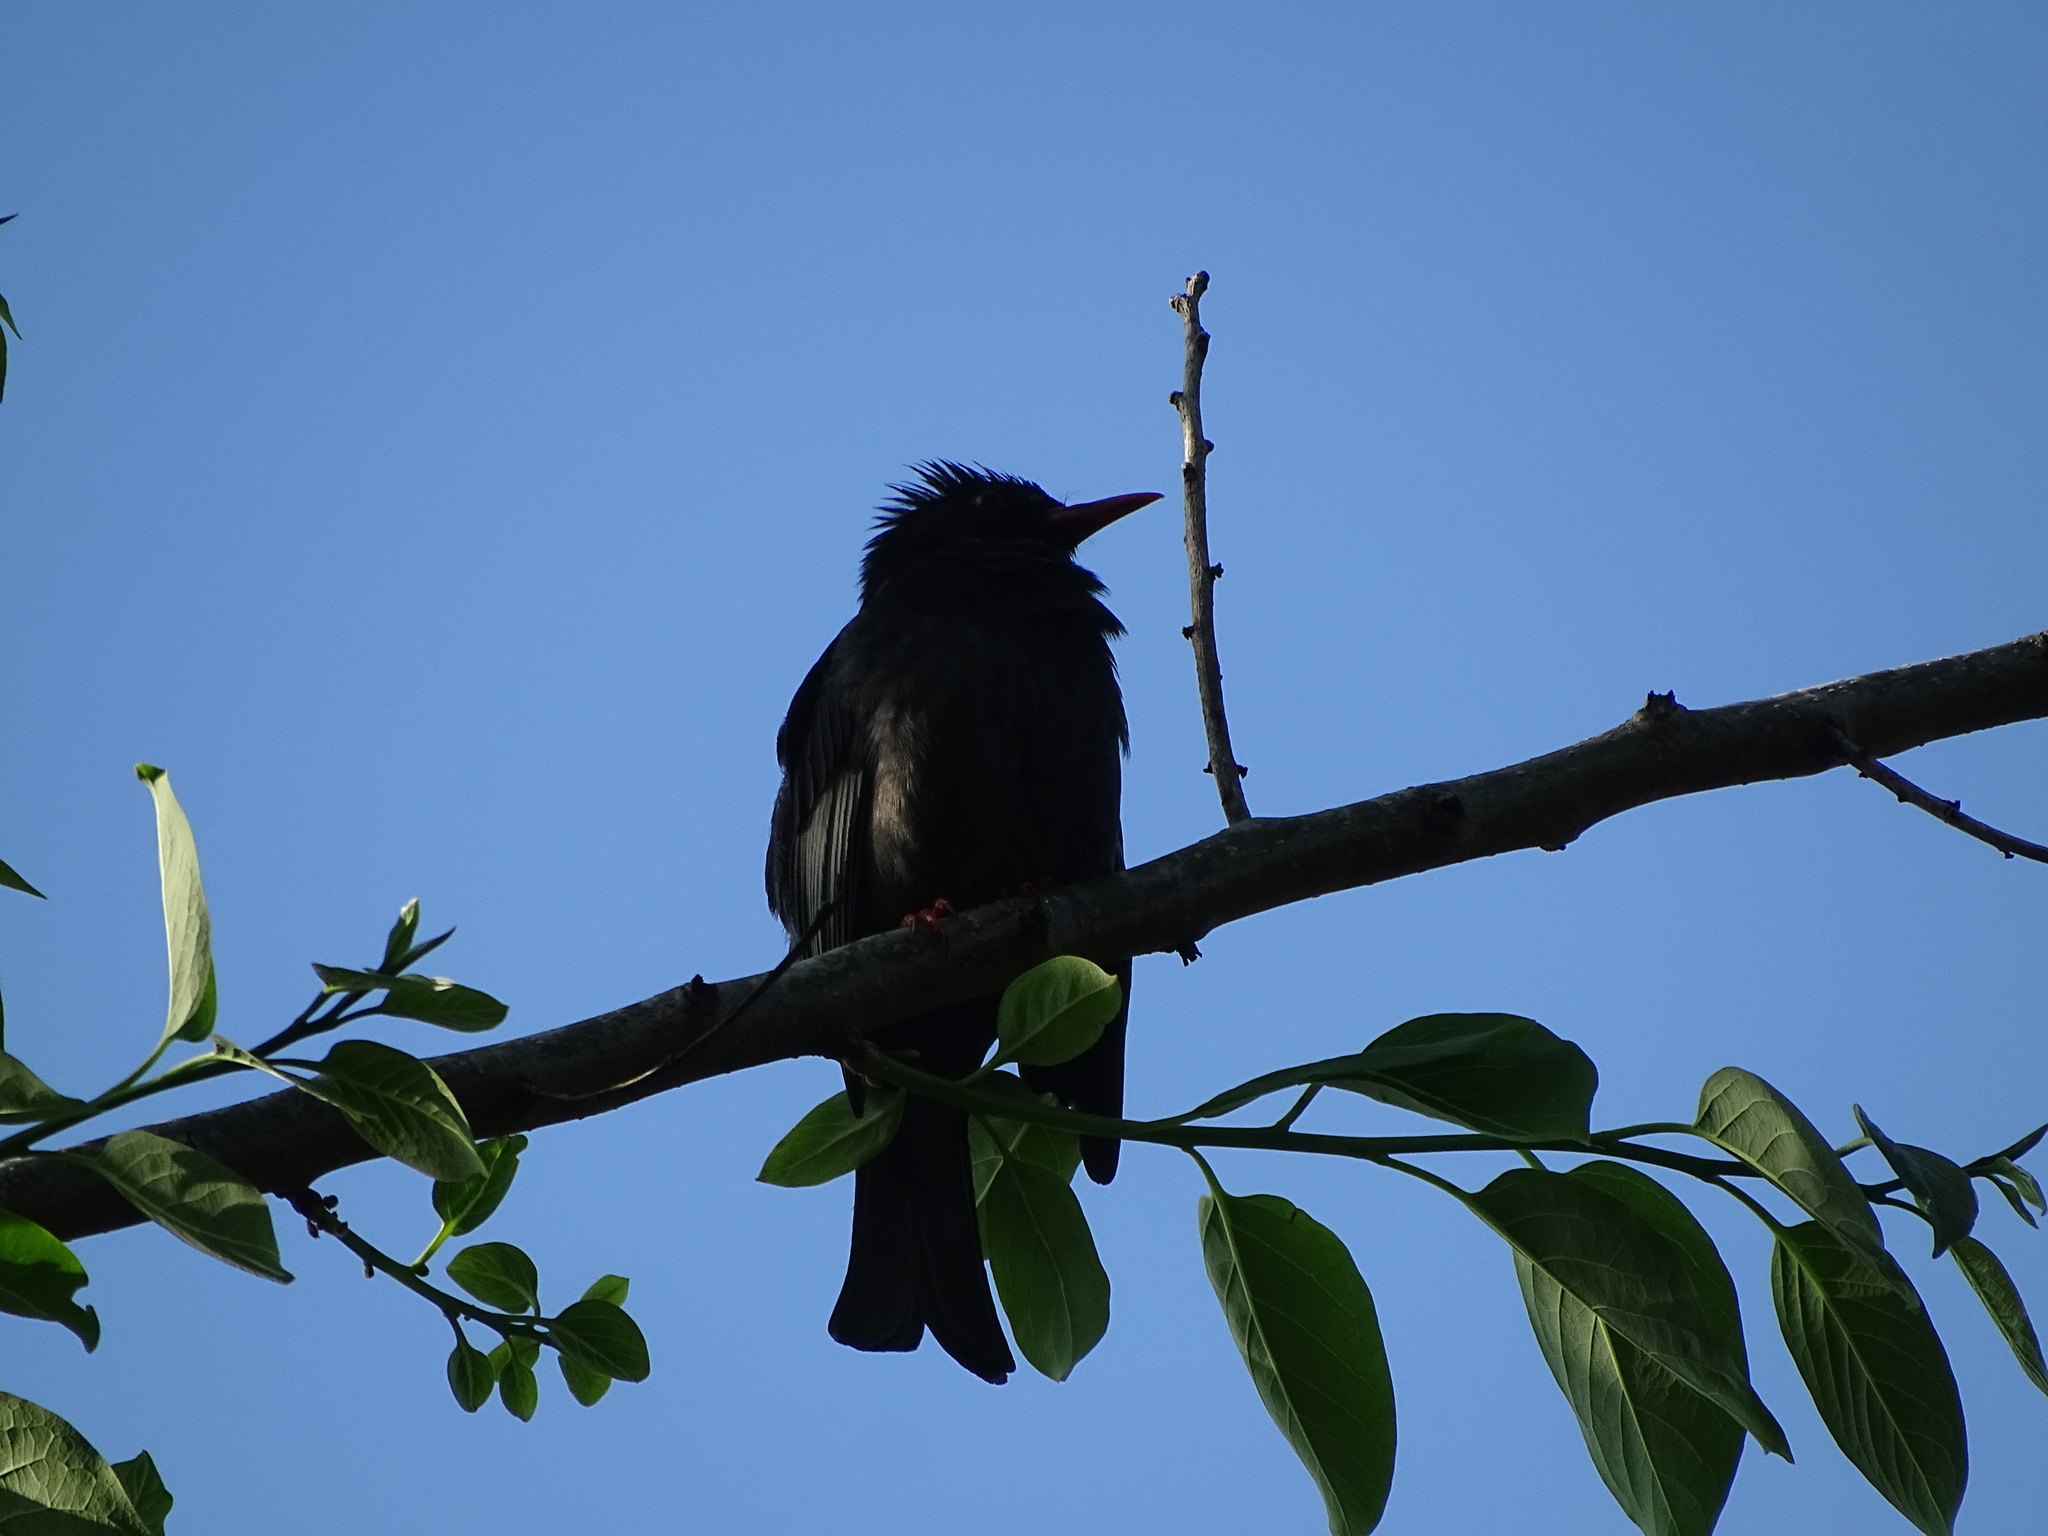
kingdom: Animalia
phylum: Chordata
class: Aves
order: Passeriformes
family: Pycnonotidae
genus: Hypsipetes
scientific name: Hypsipetes leucocephalus
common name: Black bulbul
